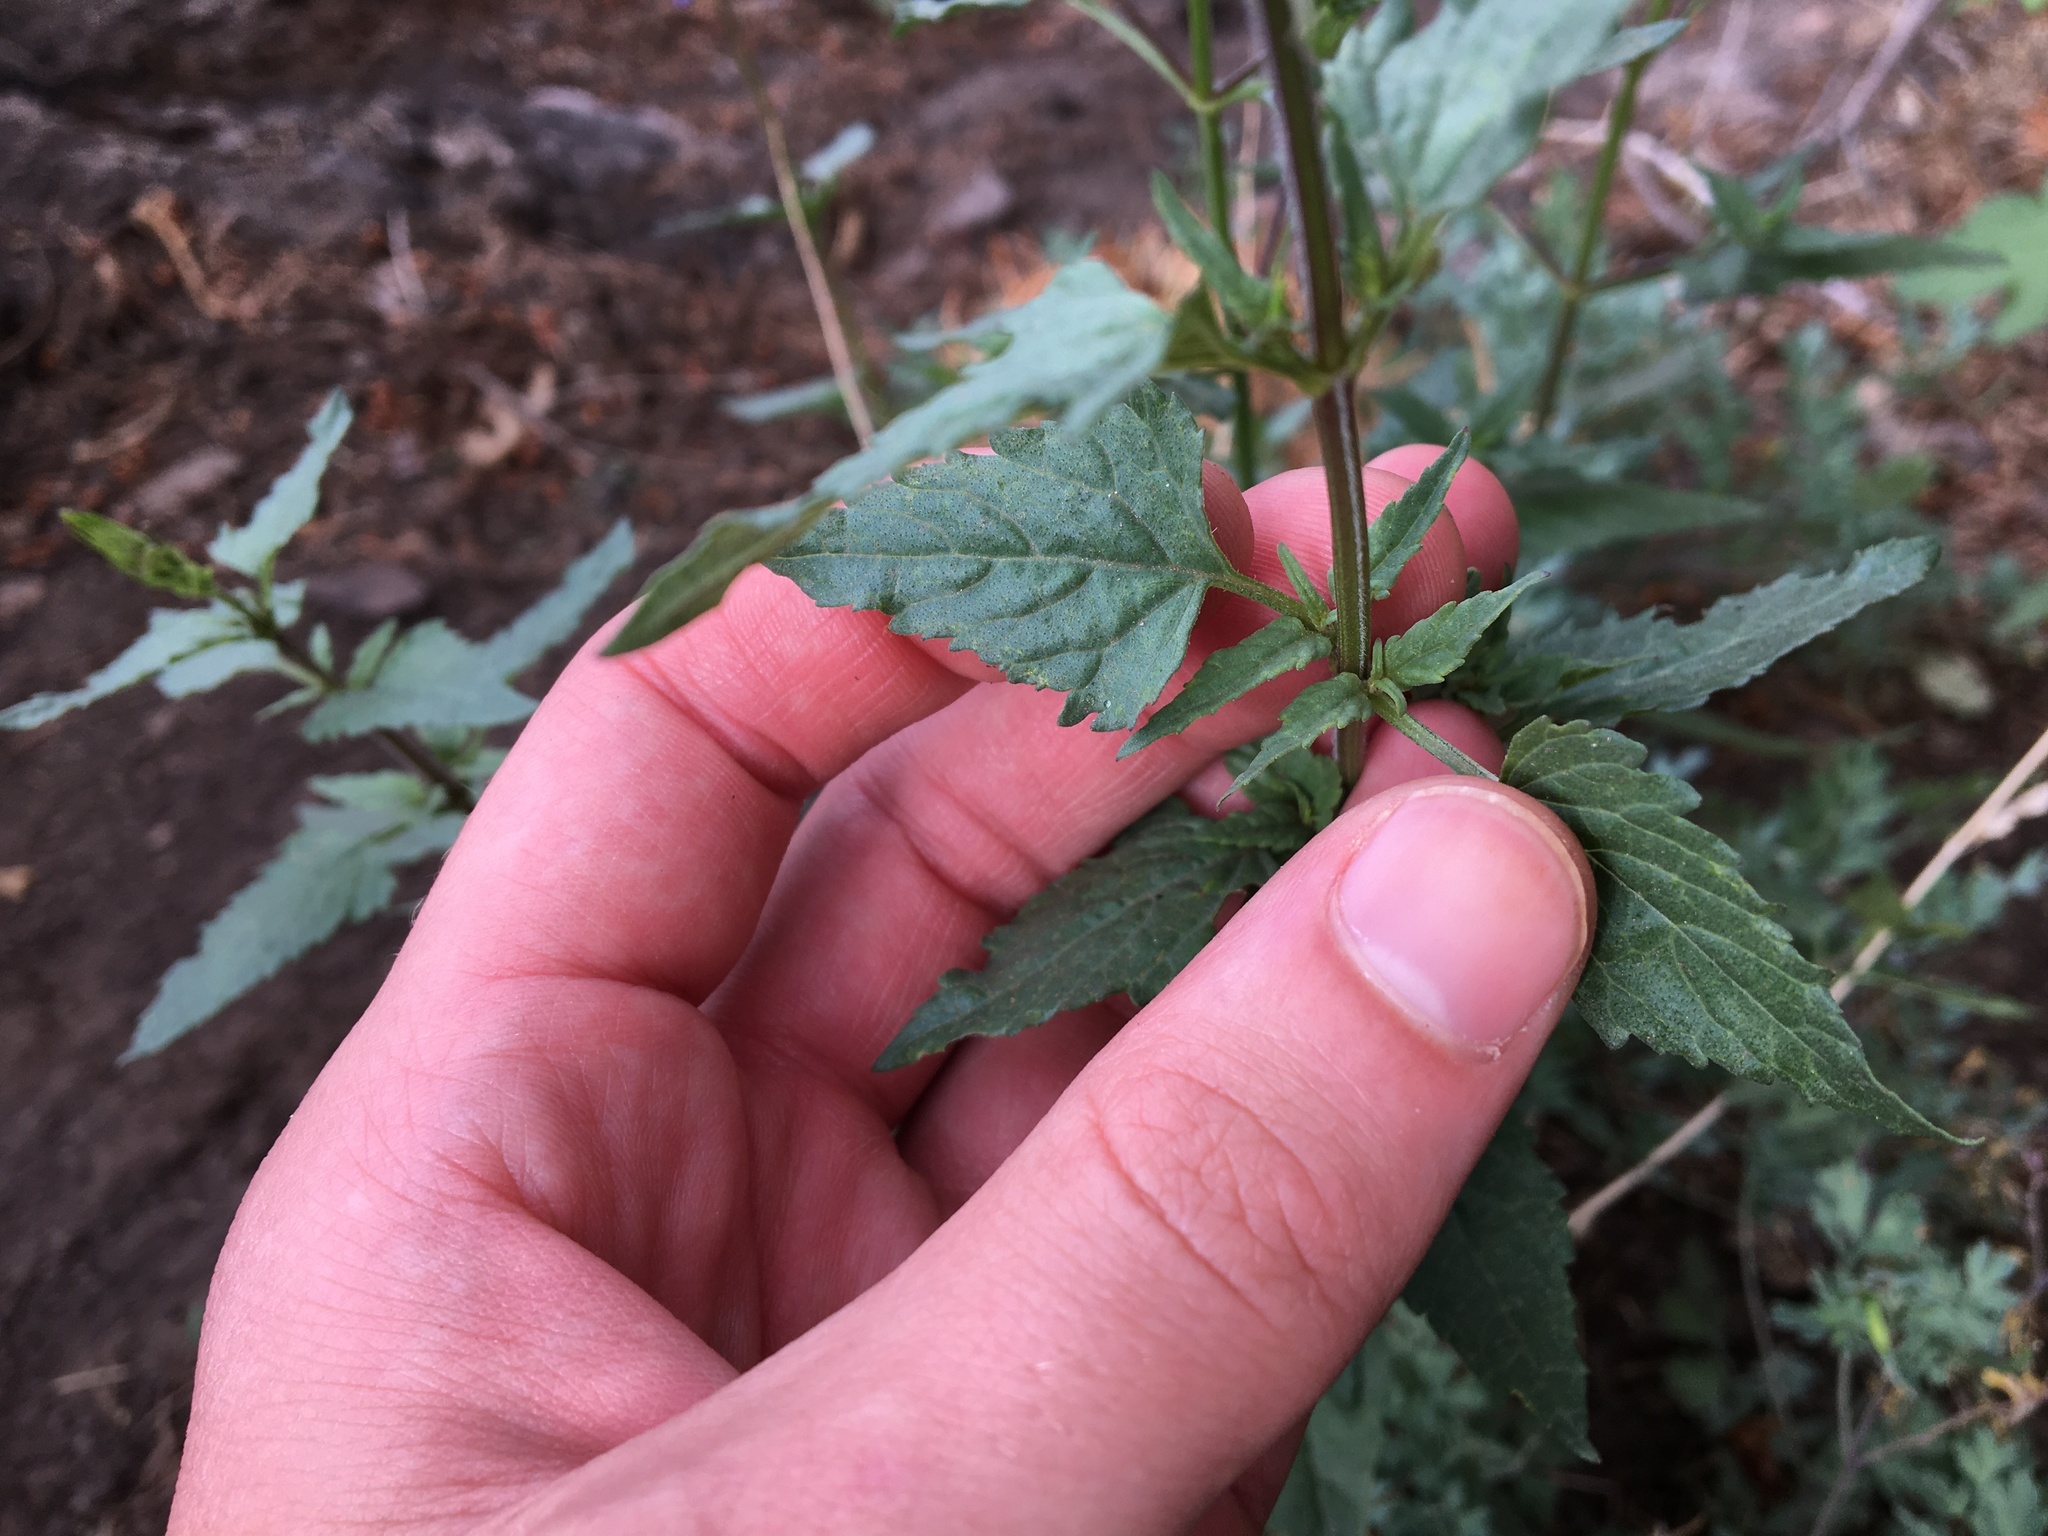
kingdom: Plantae
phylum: Tracheophyta
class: Magnoliopsida
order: Lamiales
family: Lamiaceae
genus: Salvia
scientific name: Salvia arizonica
